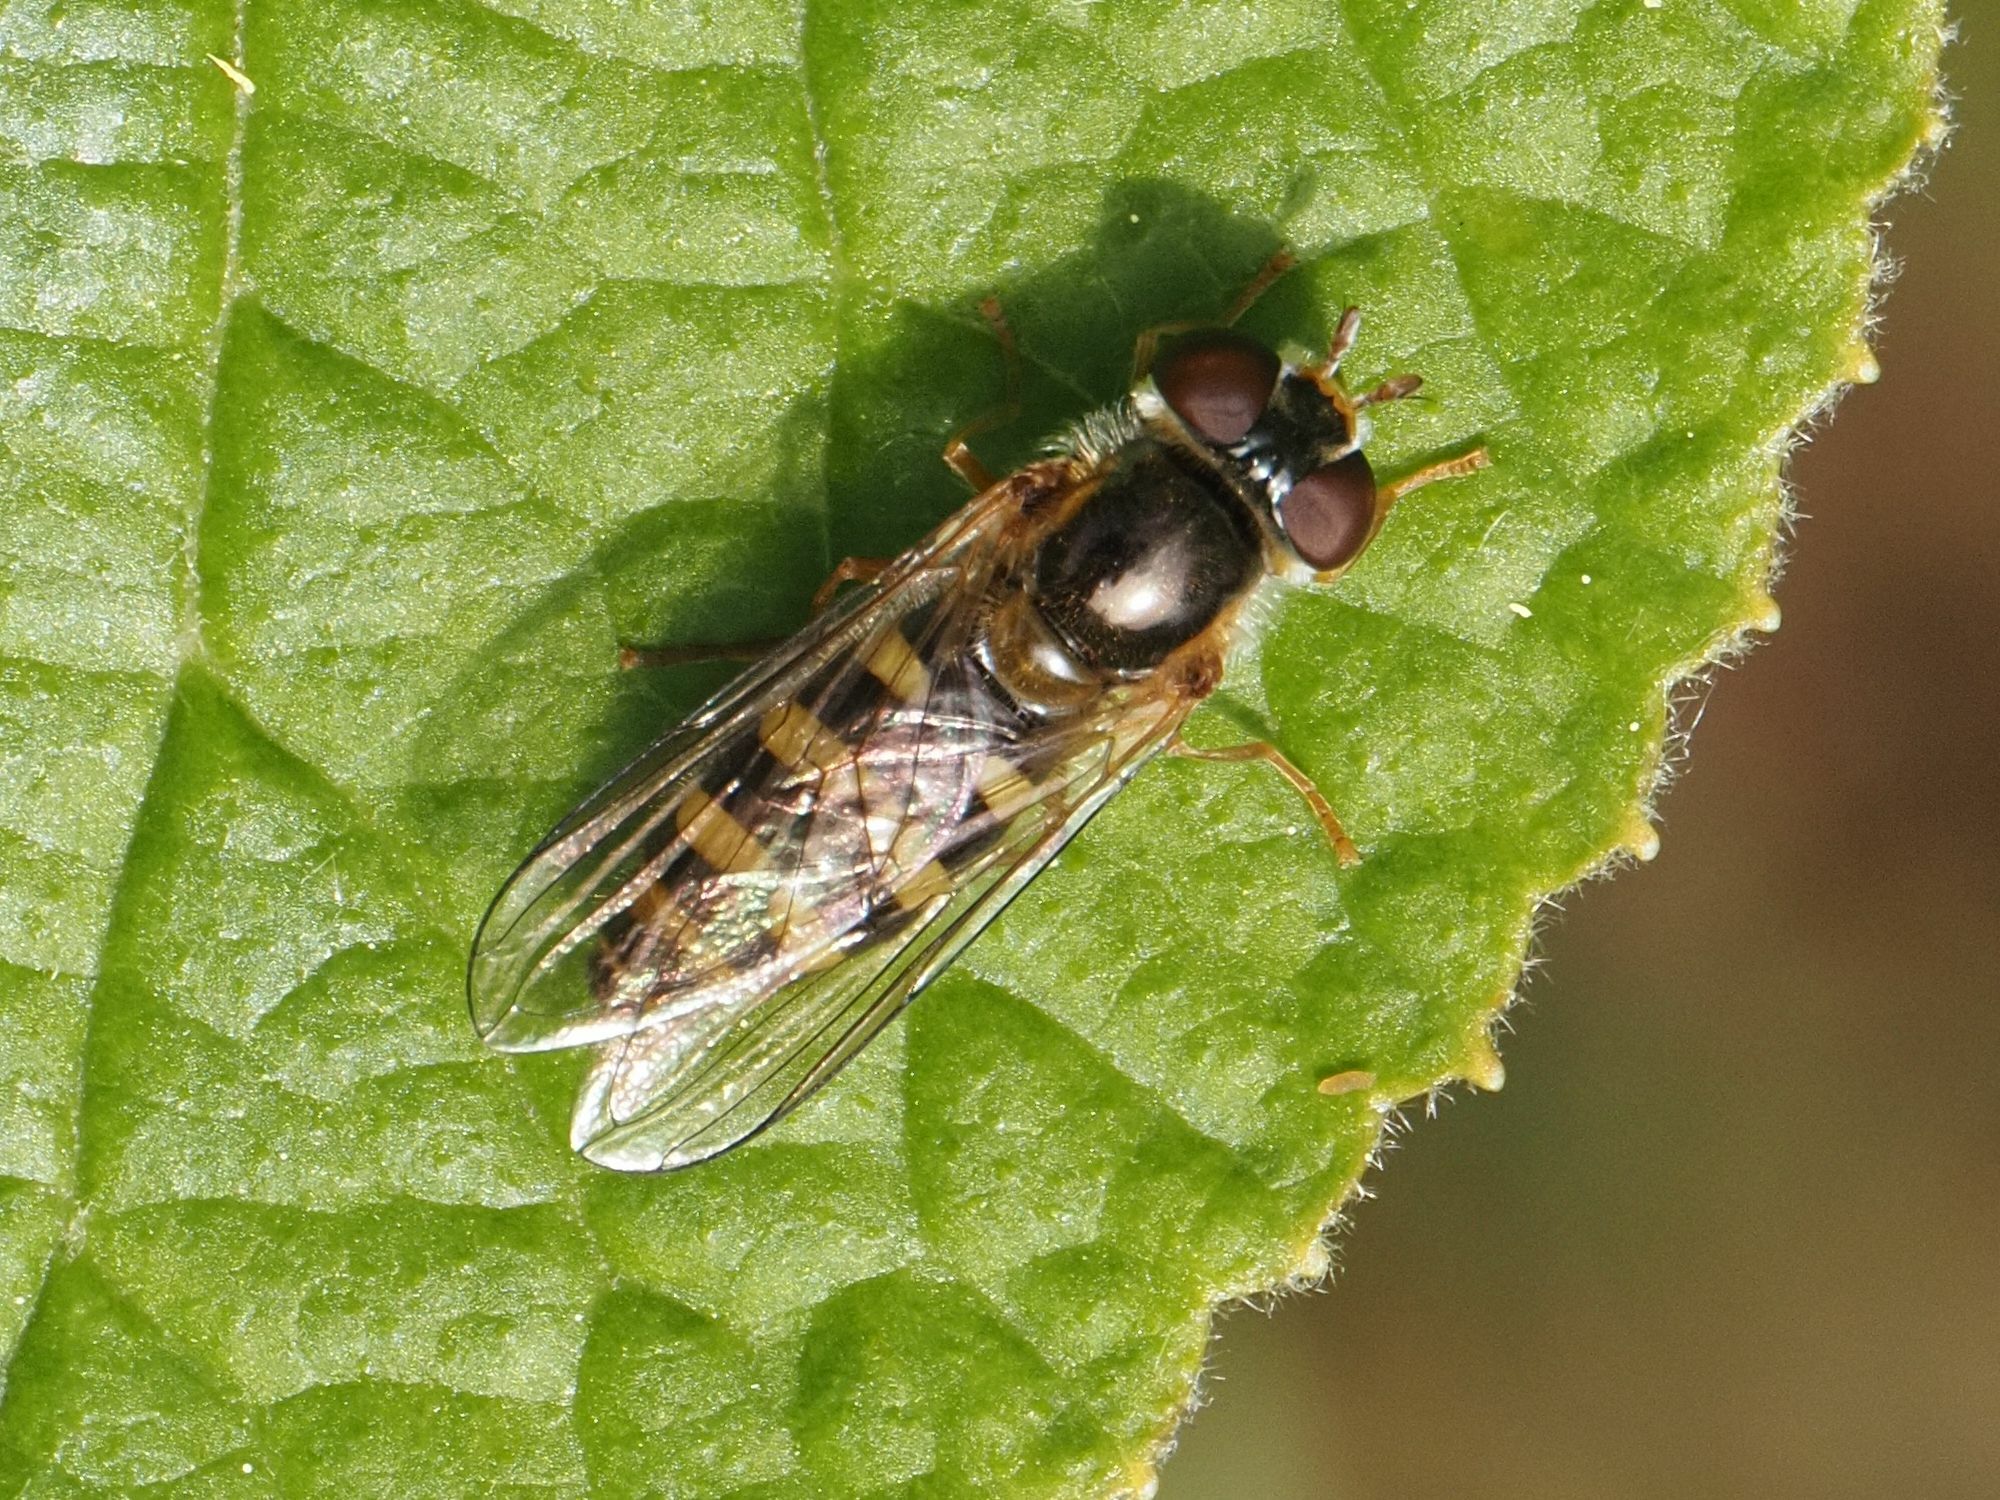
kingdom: Animalia
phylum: Arthropoda
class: Insecta
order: Diptera
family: Syrphidae
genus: Epistrophella
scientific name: Epistrophella euchromus
